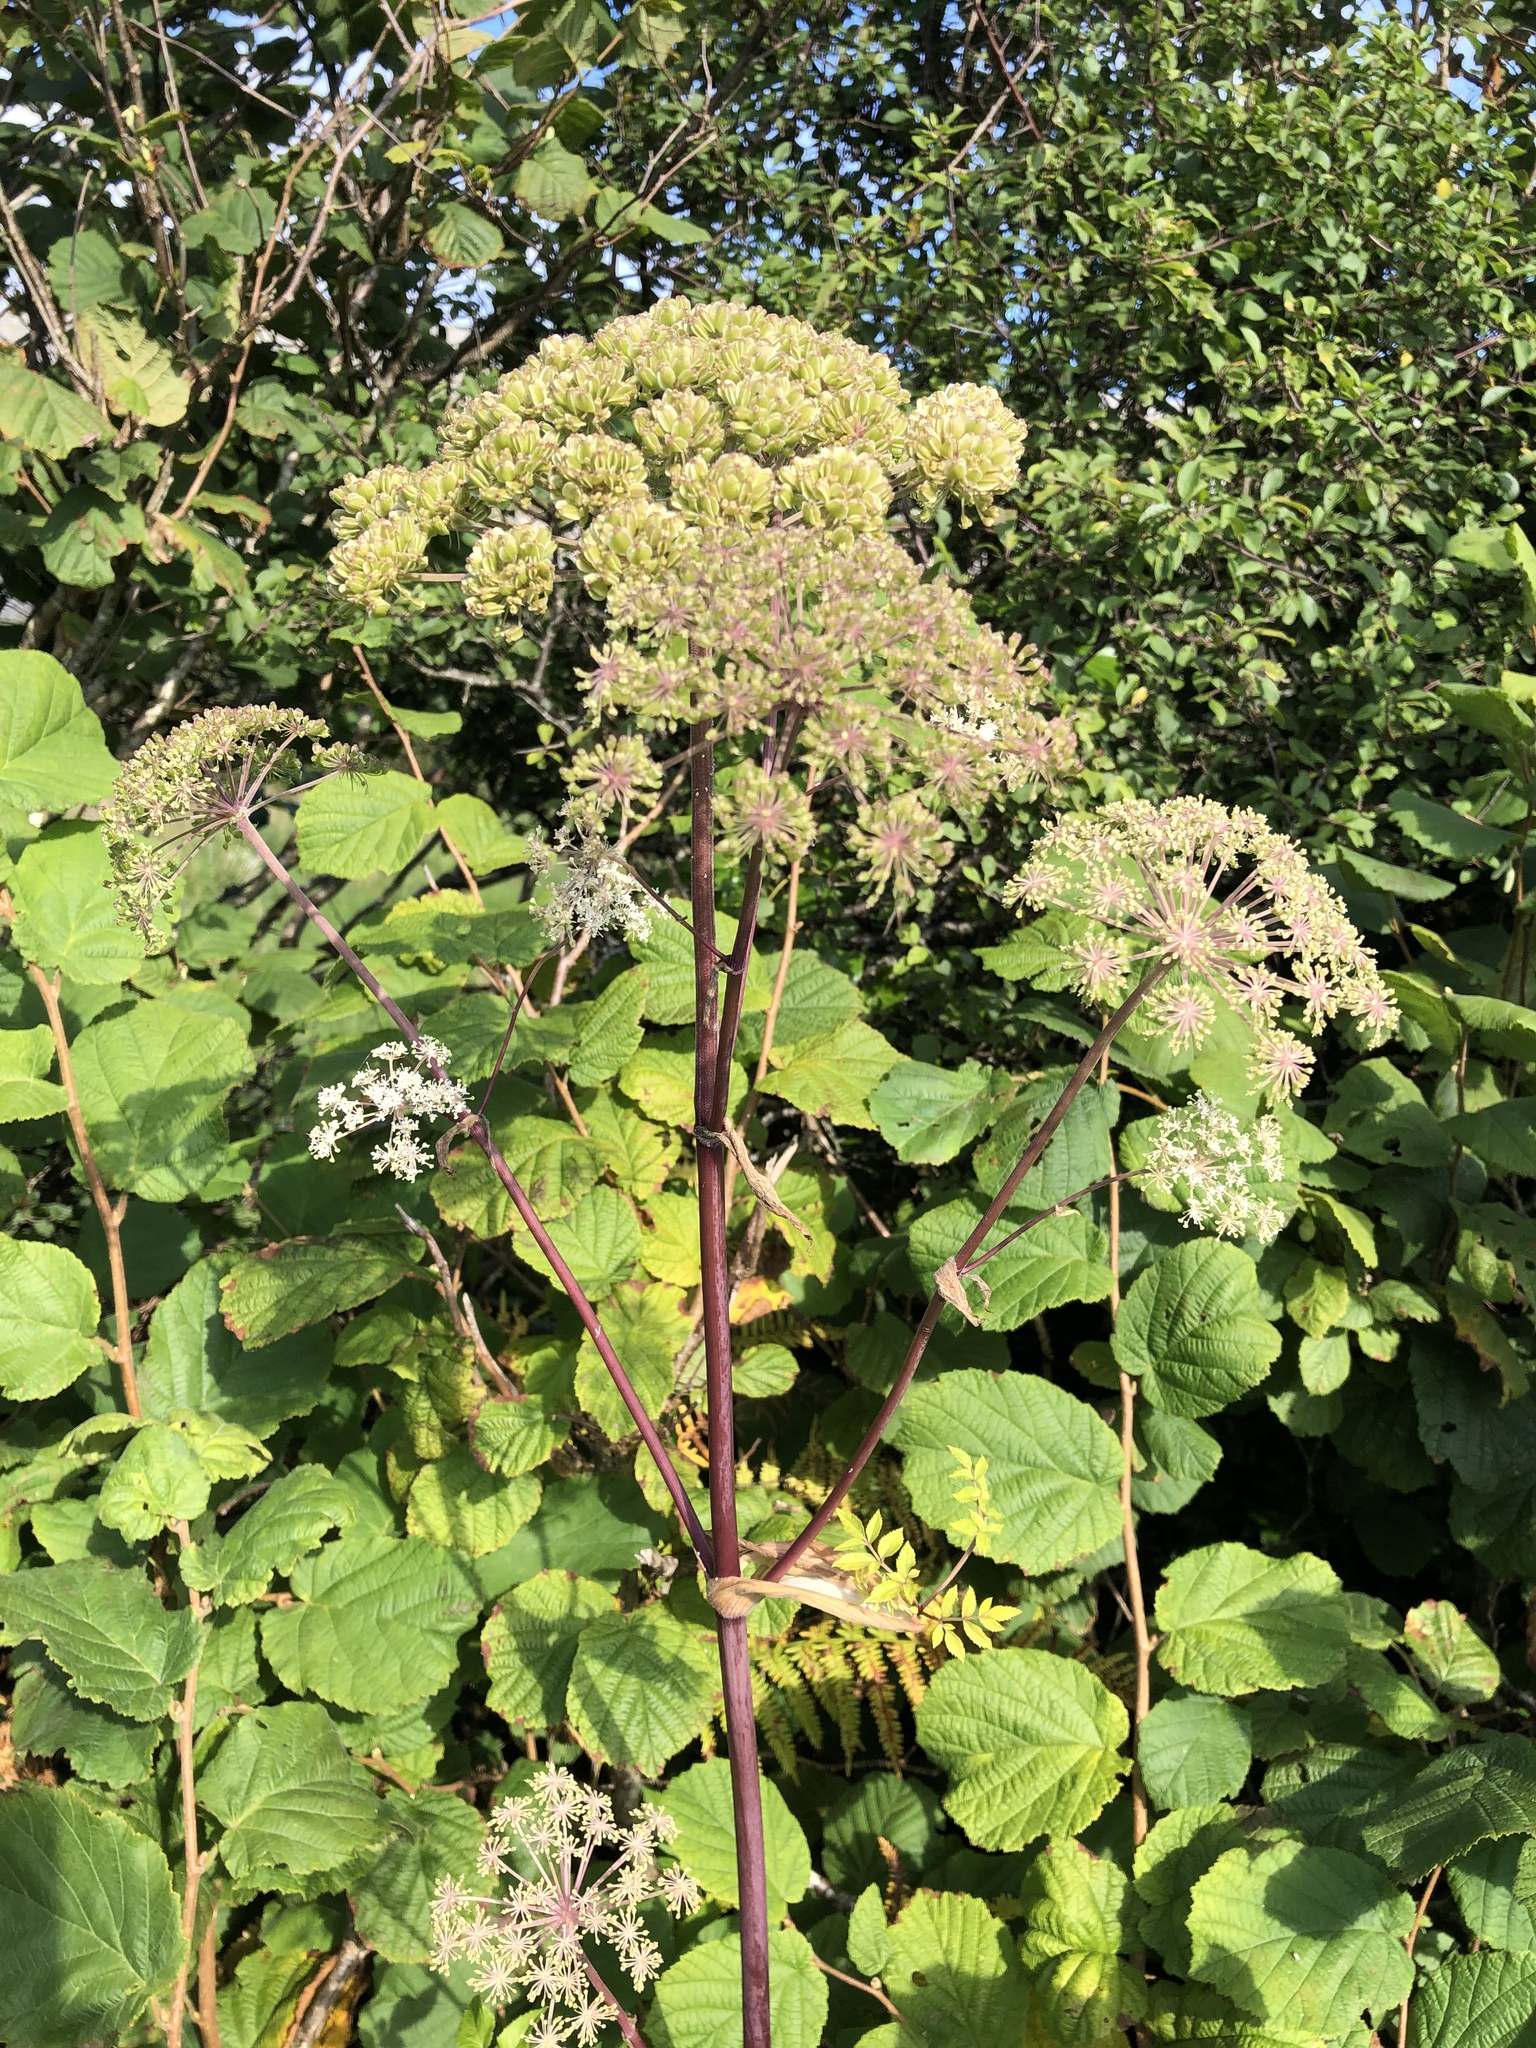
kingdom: Plantae
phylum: Tracheophyta
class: Magnoliopsida
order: Apiales
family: Apiaceae
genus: Angelica
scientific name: Angelica sylvestris
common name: Wild angelica
